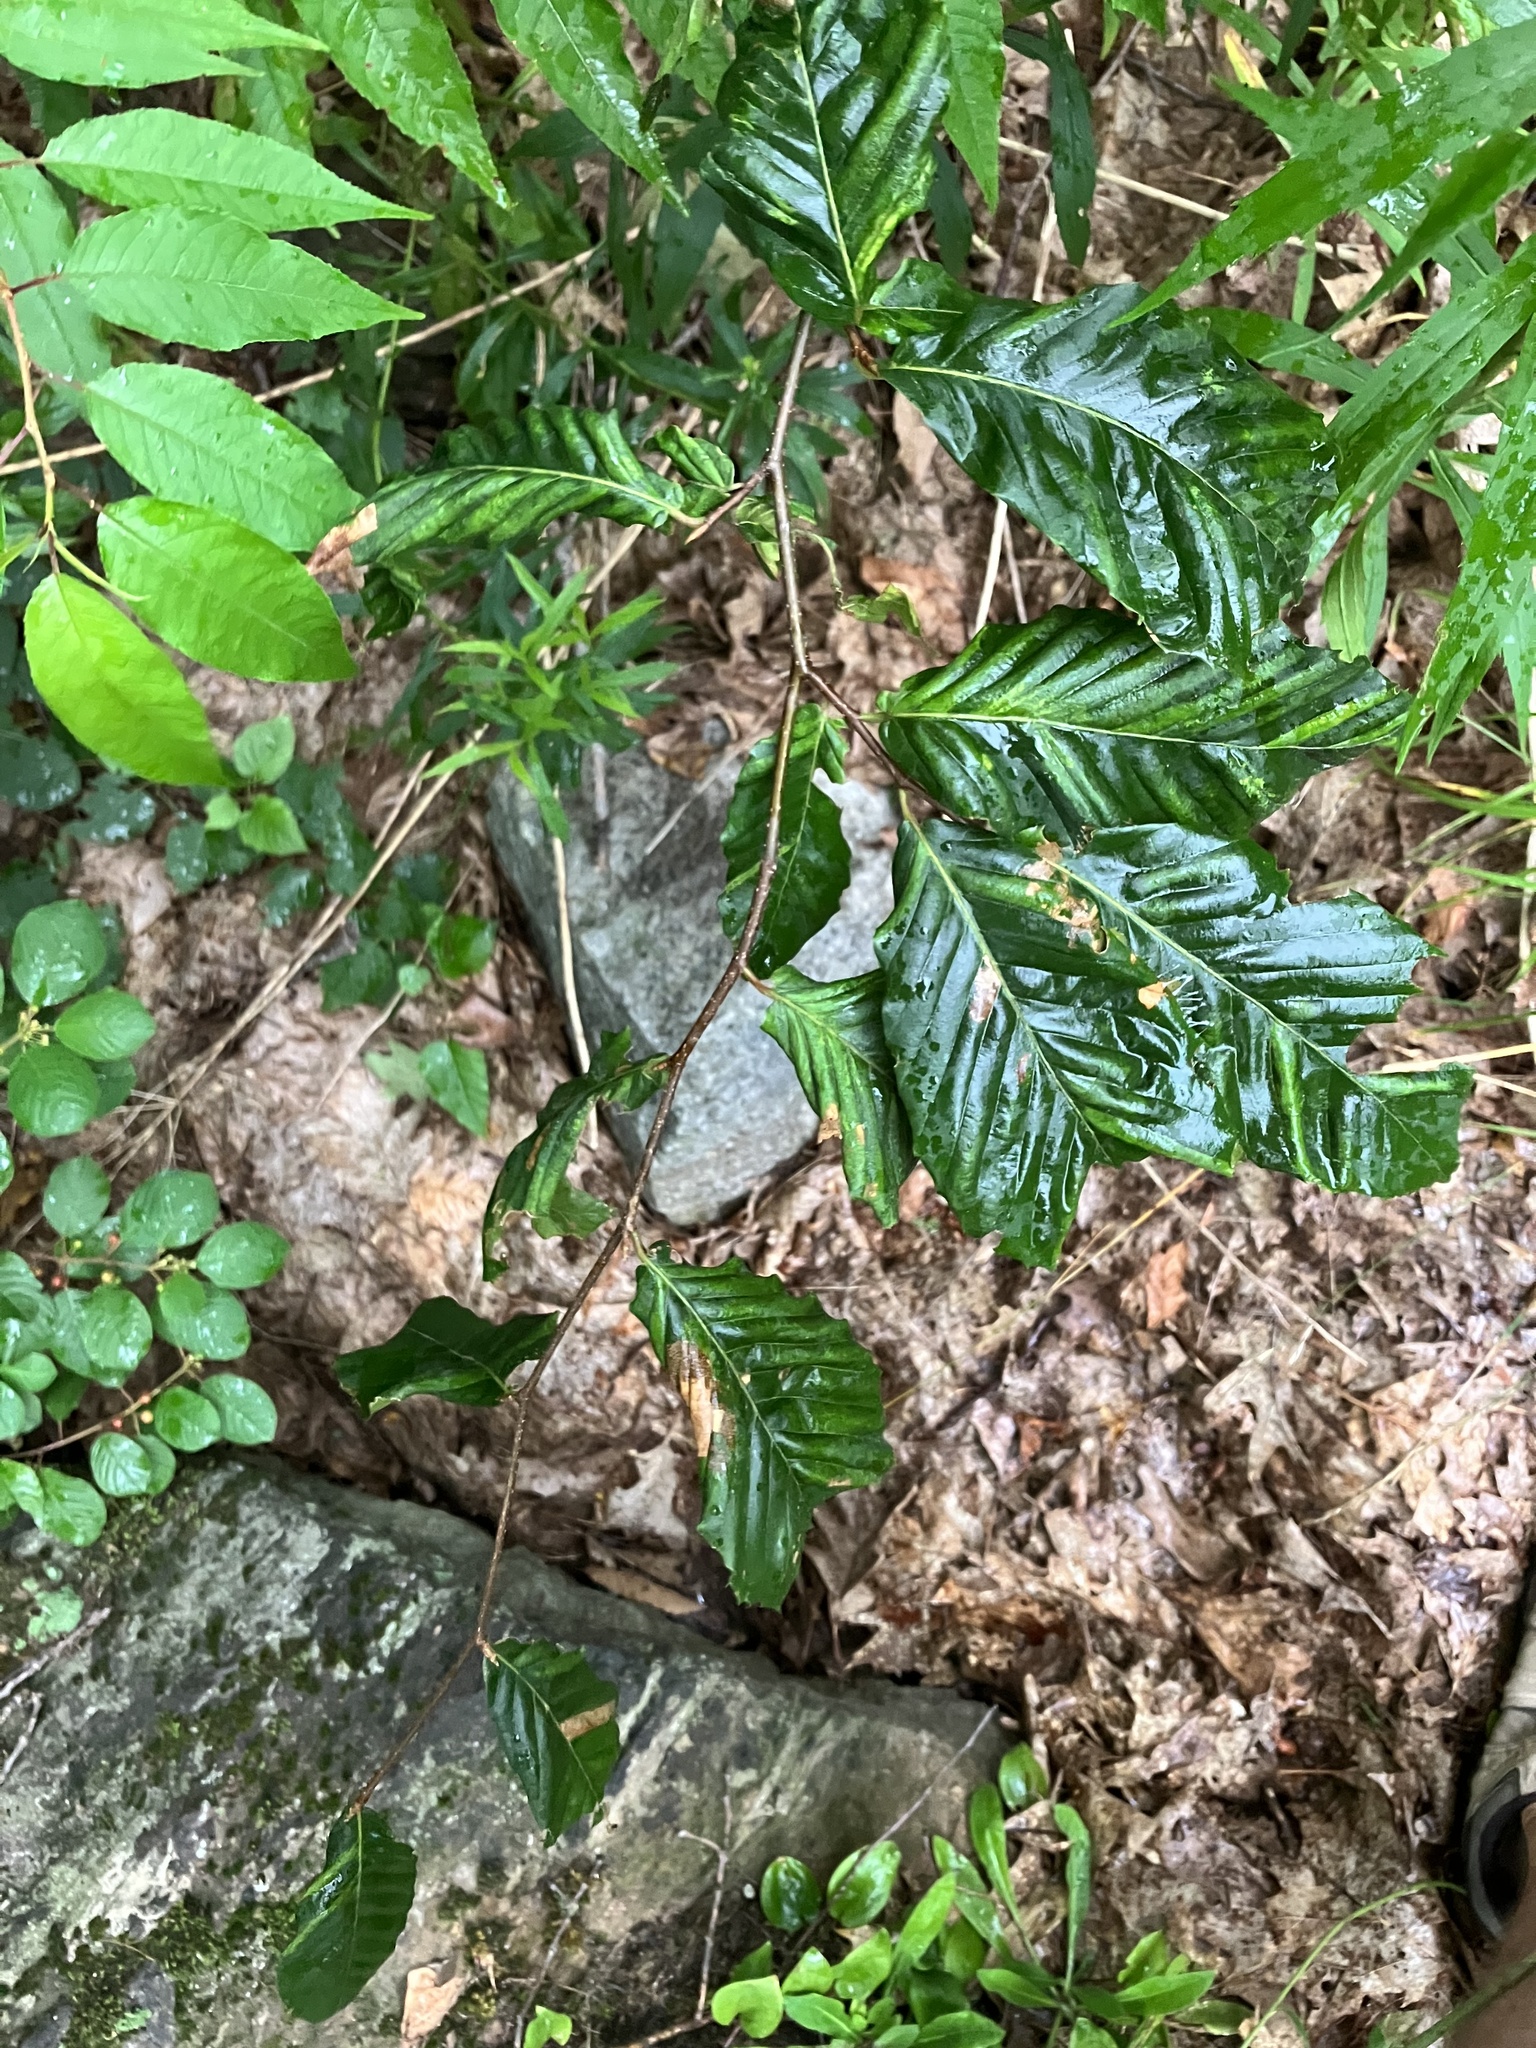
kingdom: Animalia
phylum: Nematoda
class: Chromadorea
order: Rhabditida
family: Anguinidae
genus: Litylenchus
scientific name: Litylenchus crenatae
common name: Beech leaf disease
